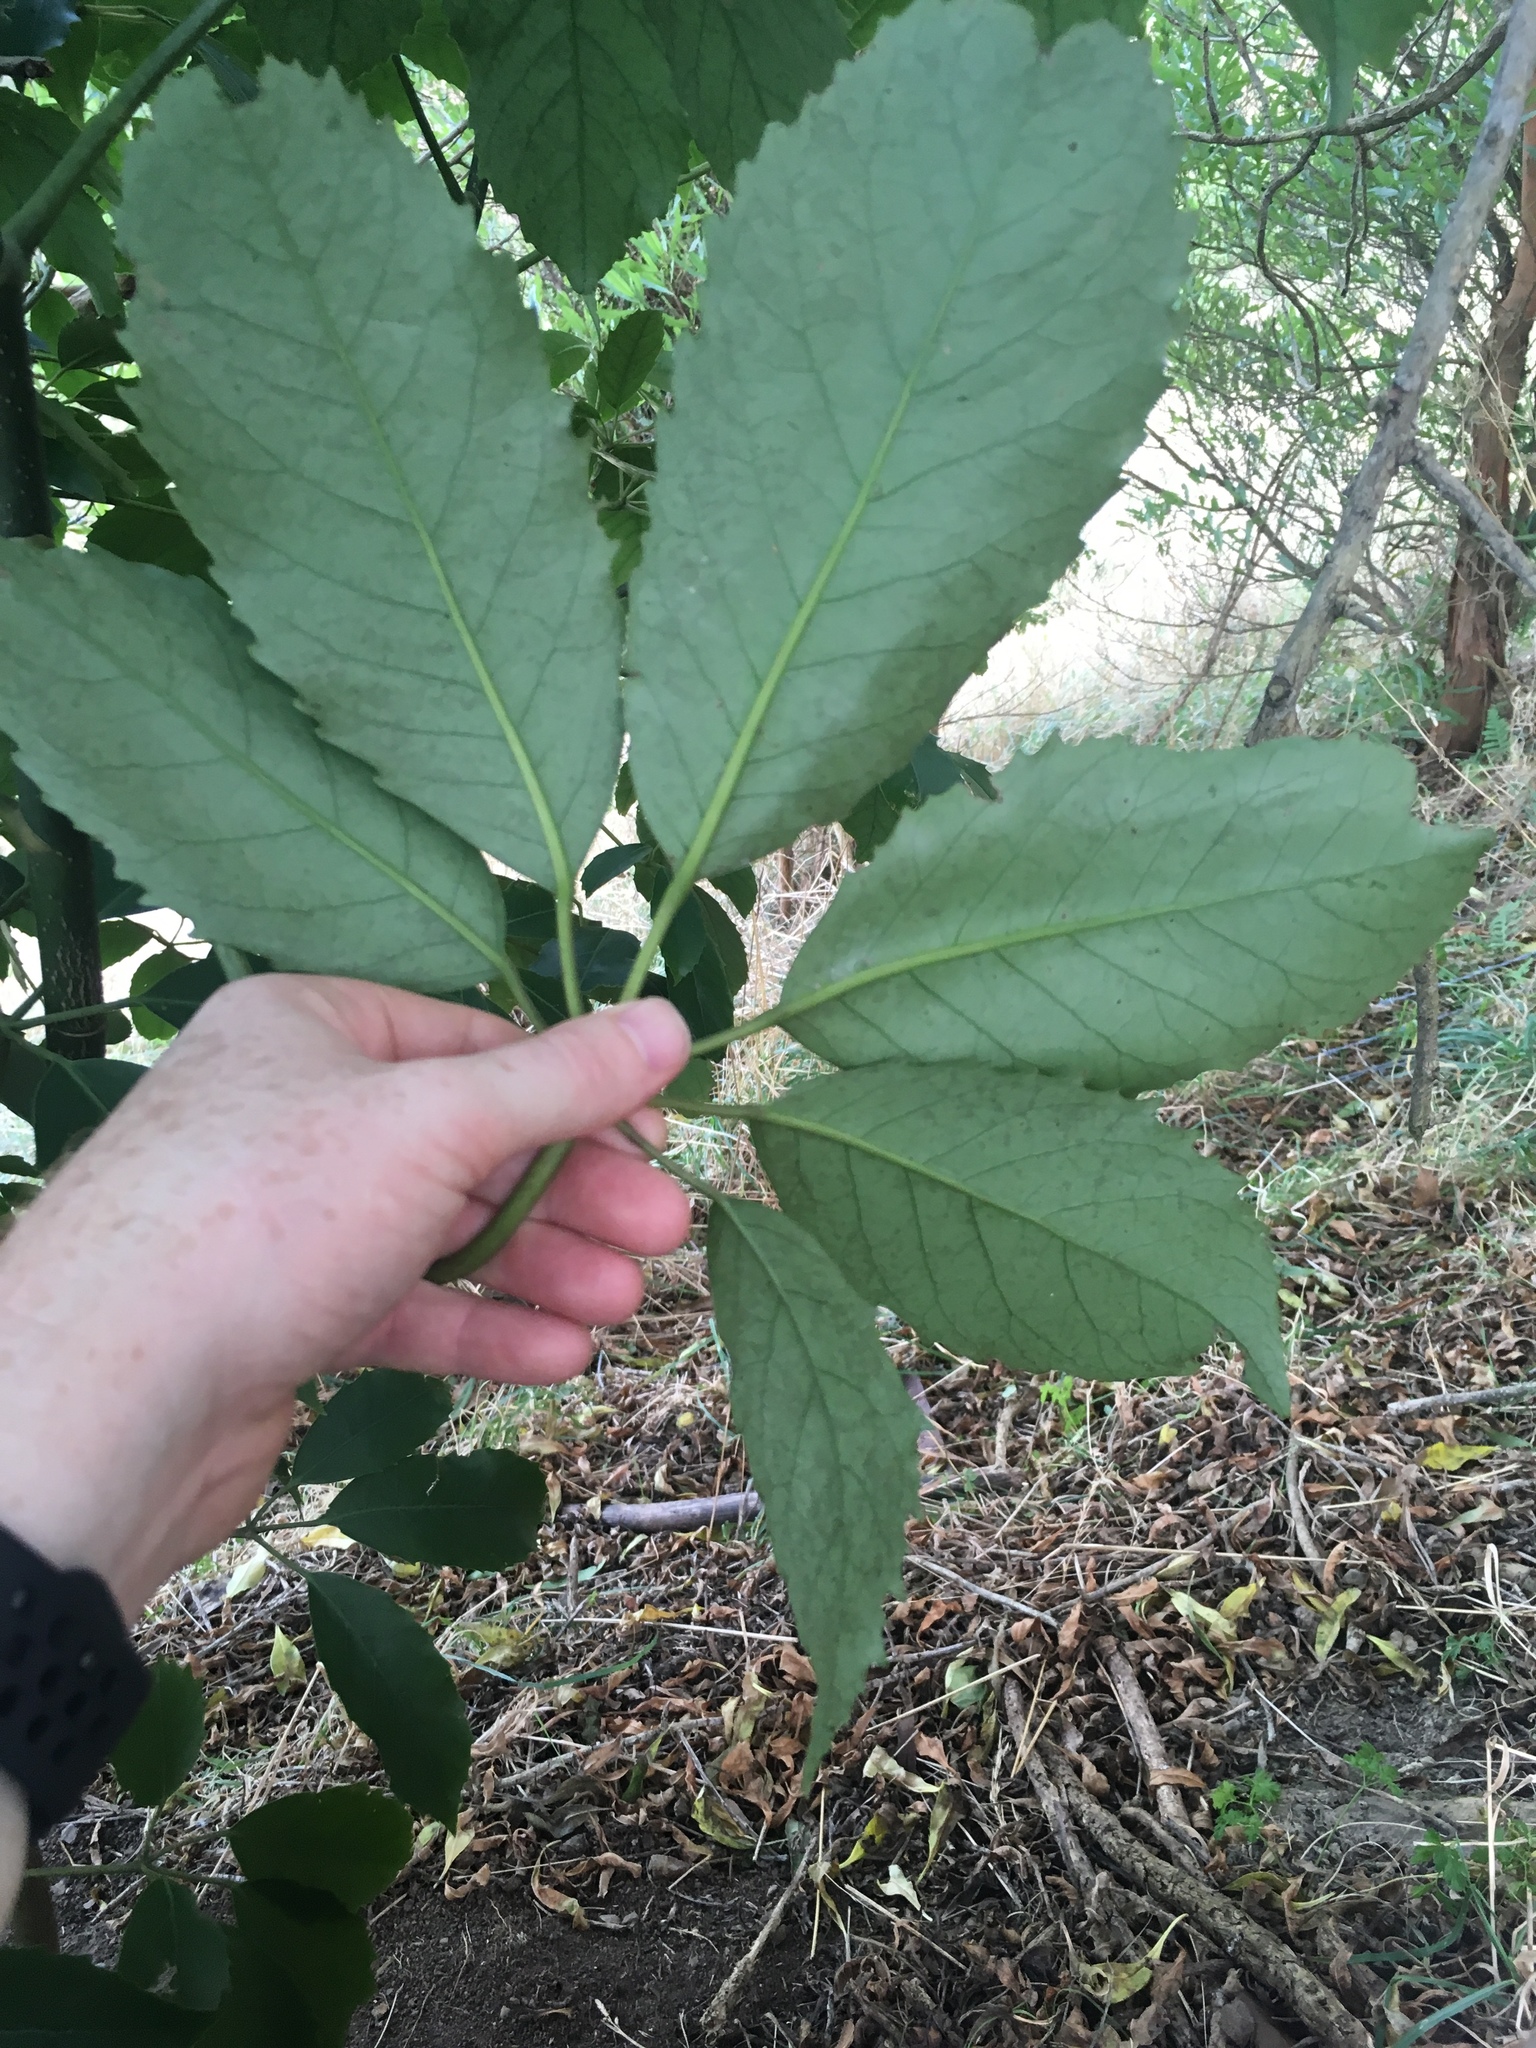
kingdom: Plantae
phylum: Tracheophyta
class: Magnoliopsida
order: Apiales
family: Araliaceae
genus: Neopanax
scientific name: Neopanax arboreus
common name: Five-fingers
